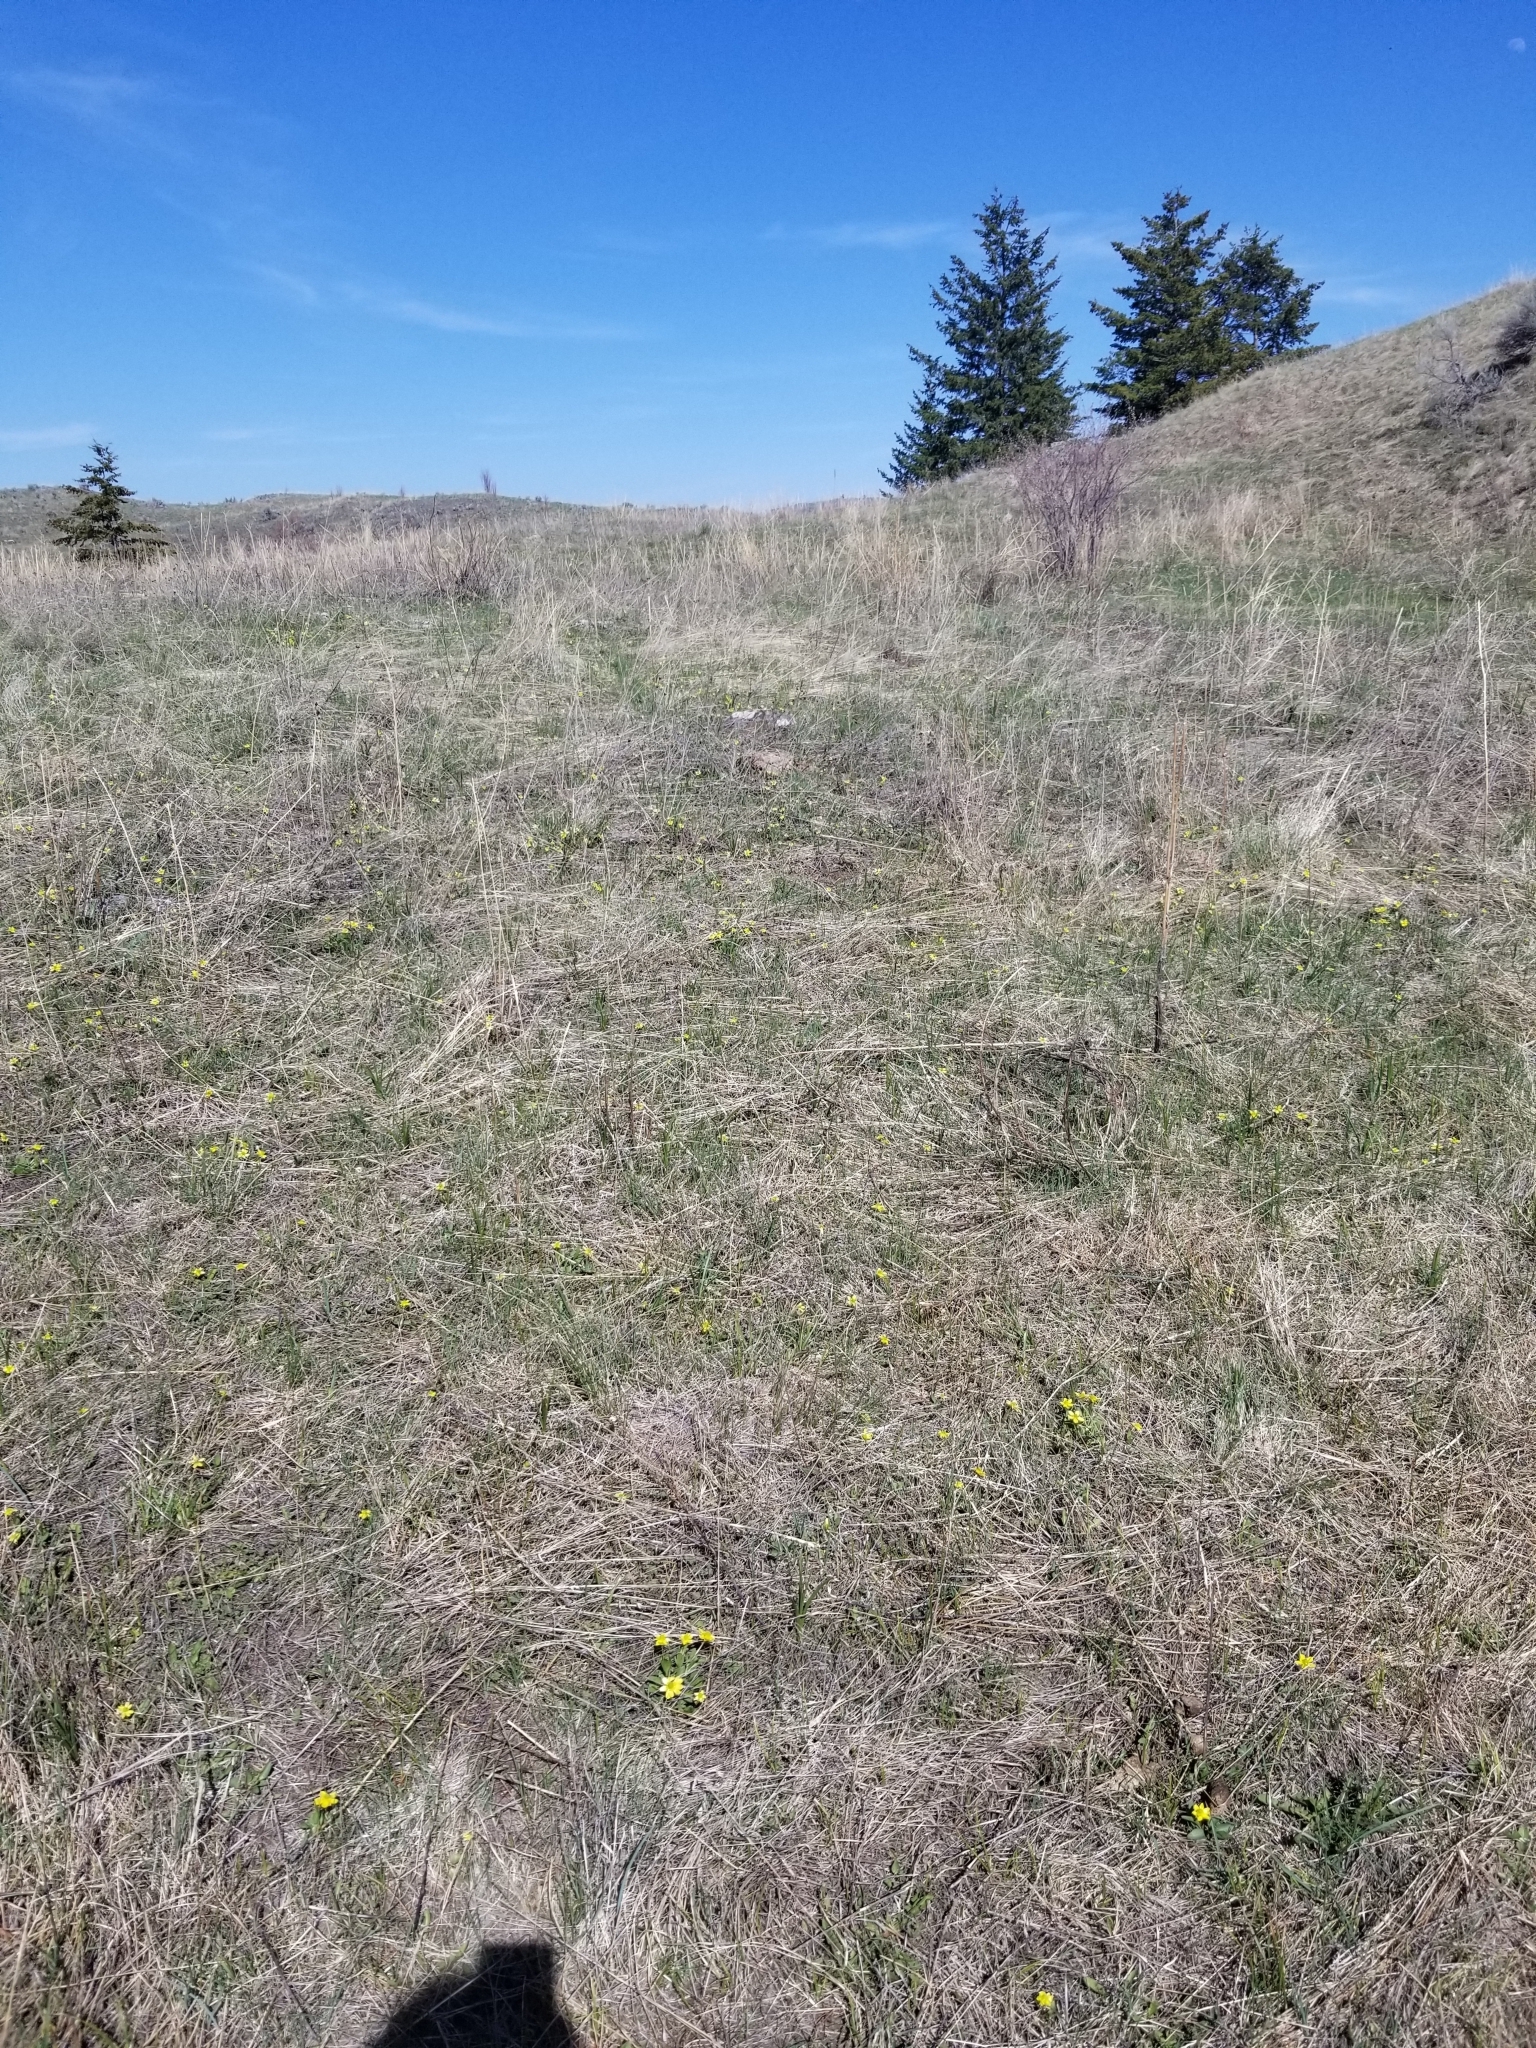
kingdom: Plantae
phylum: Tracheophyta
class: Magnoliopsida
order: Ranunculales
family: Ranunculaceae
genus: Ranunculus
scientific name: Ranunculus glaberrimus
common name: Sagebrush buttercup
